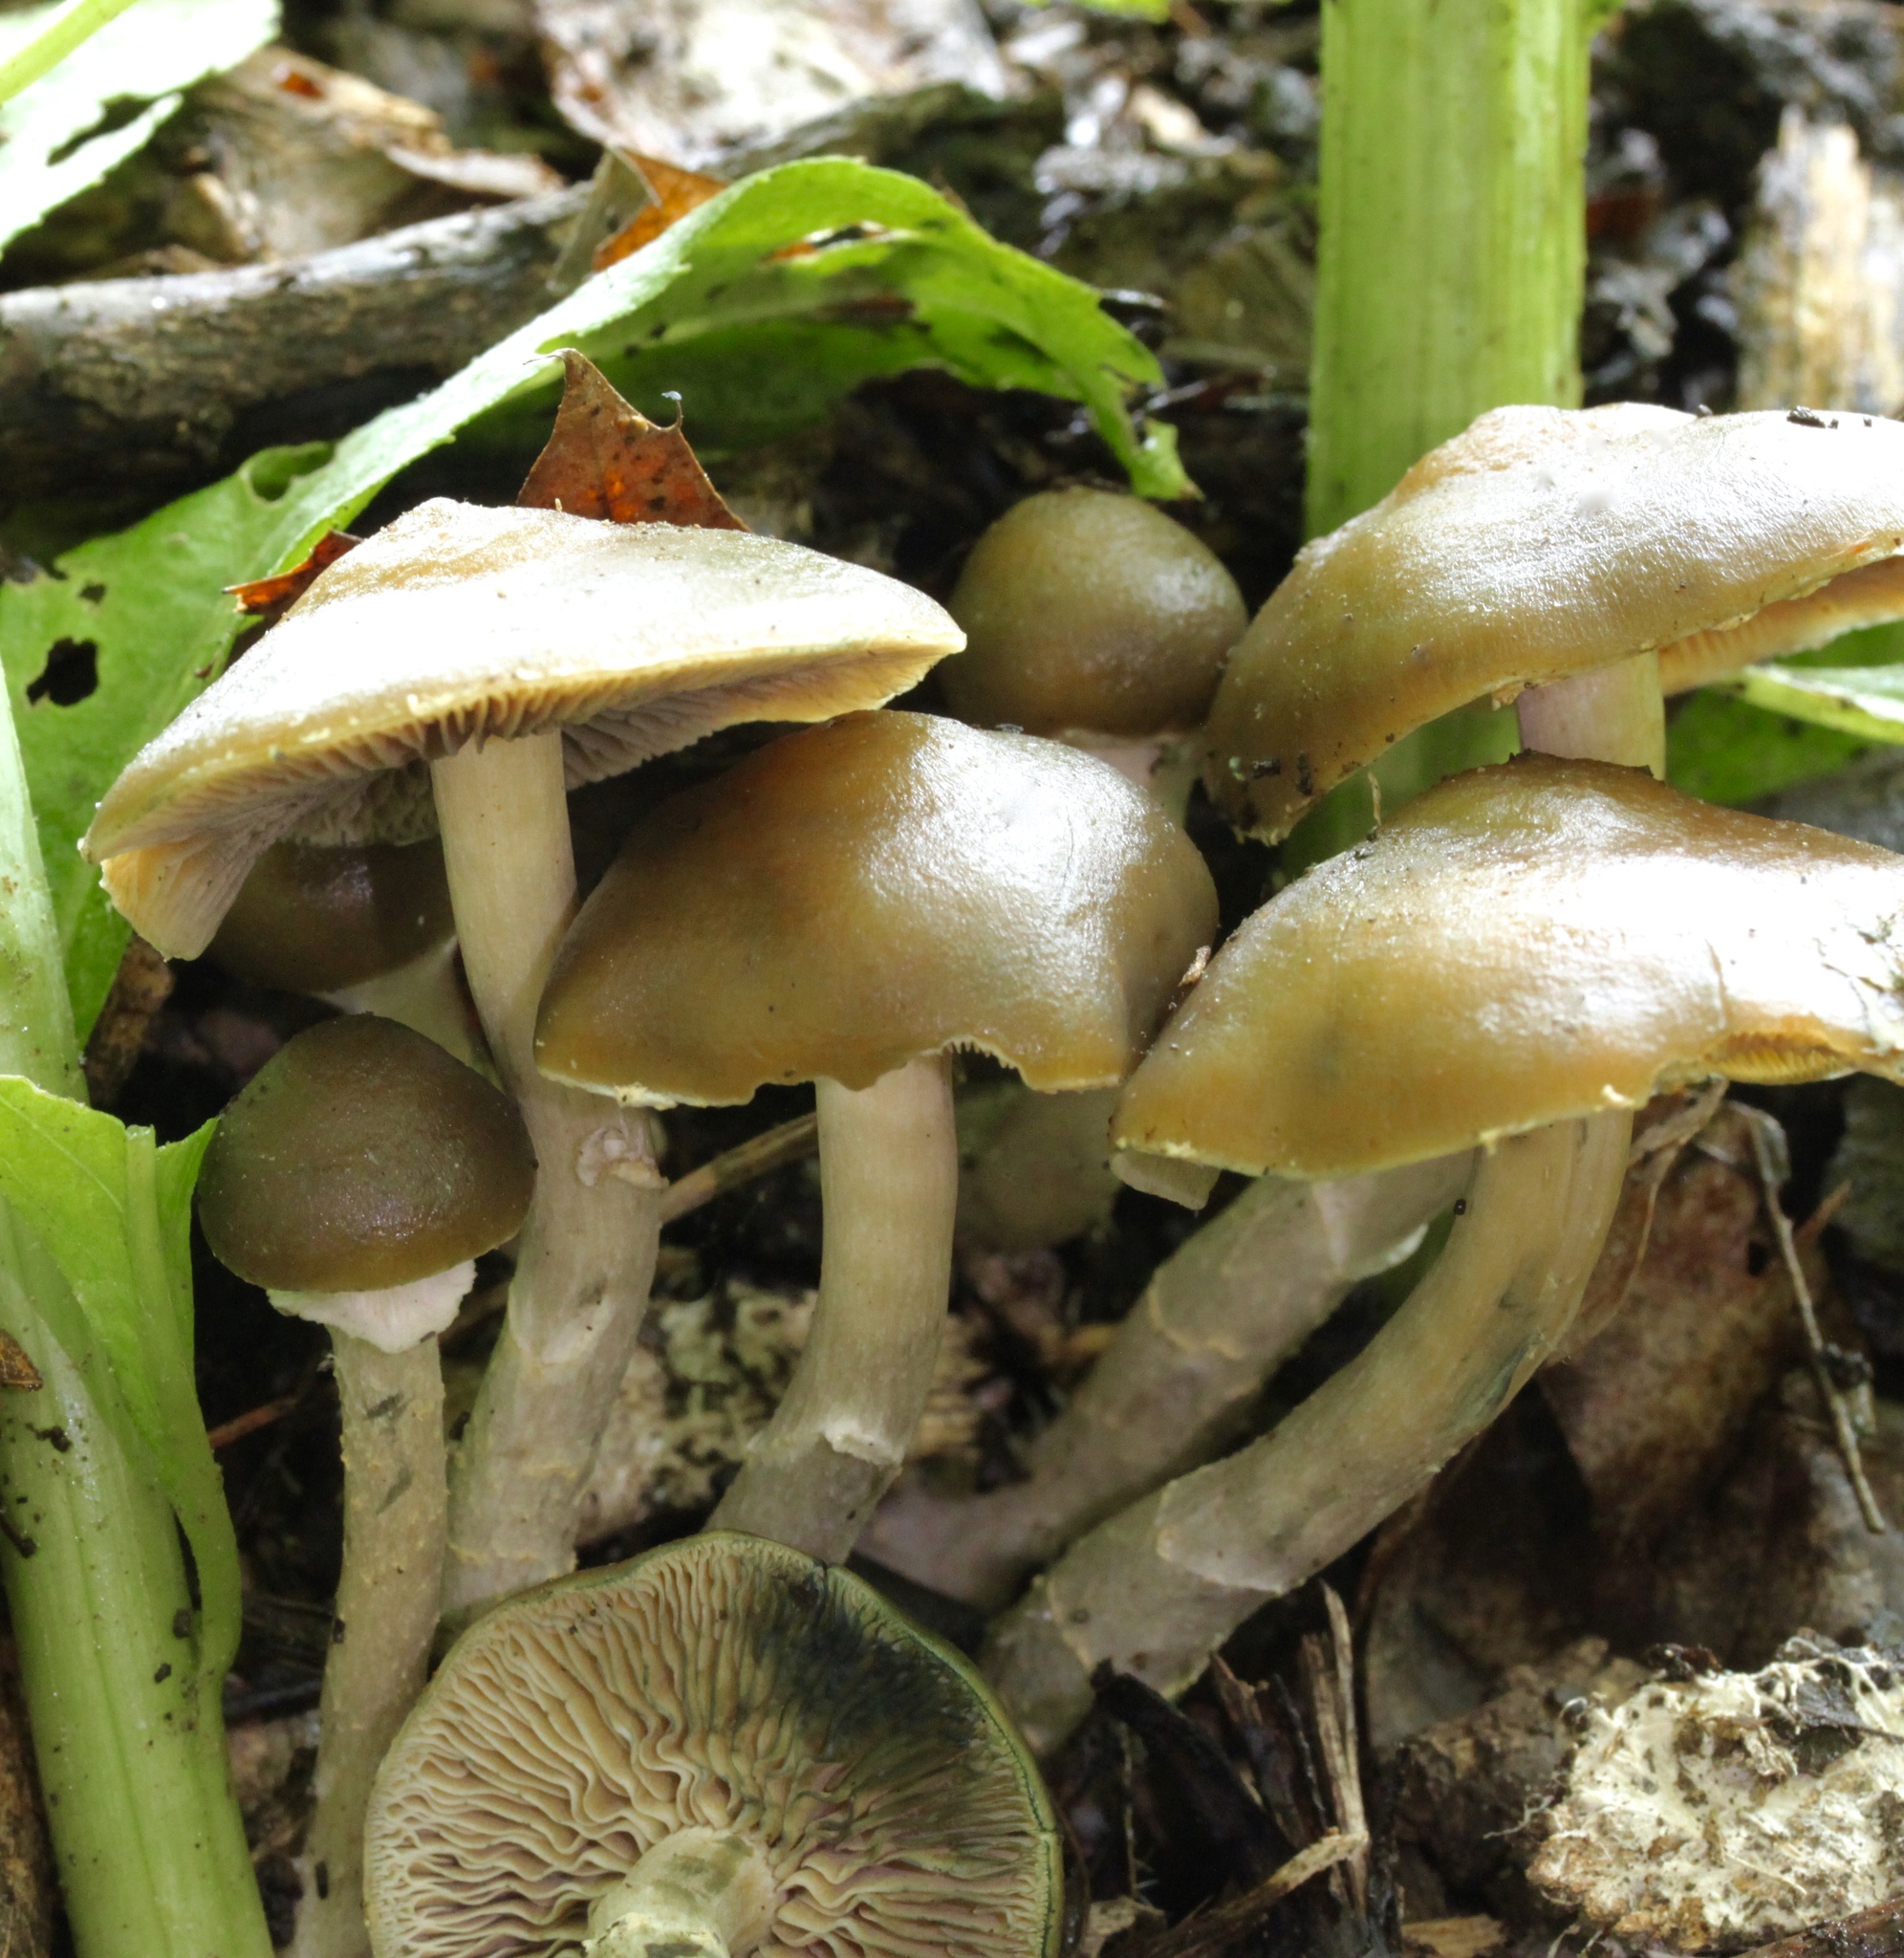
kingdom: Fungi
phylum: Basidiomycota
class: Agaricomycetes
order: Agaricales
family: Hymenogastraceae
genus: Psilocybe
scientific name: Psilocybe ovoideocystidiata
